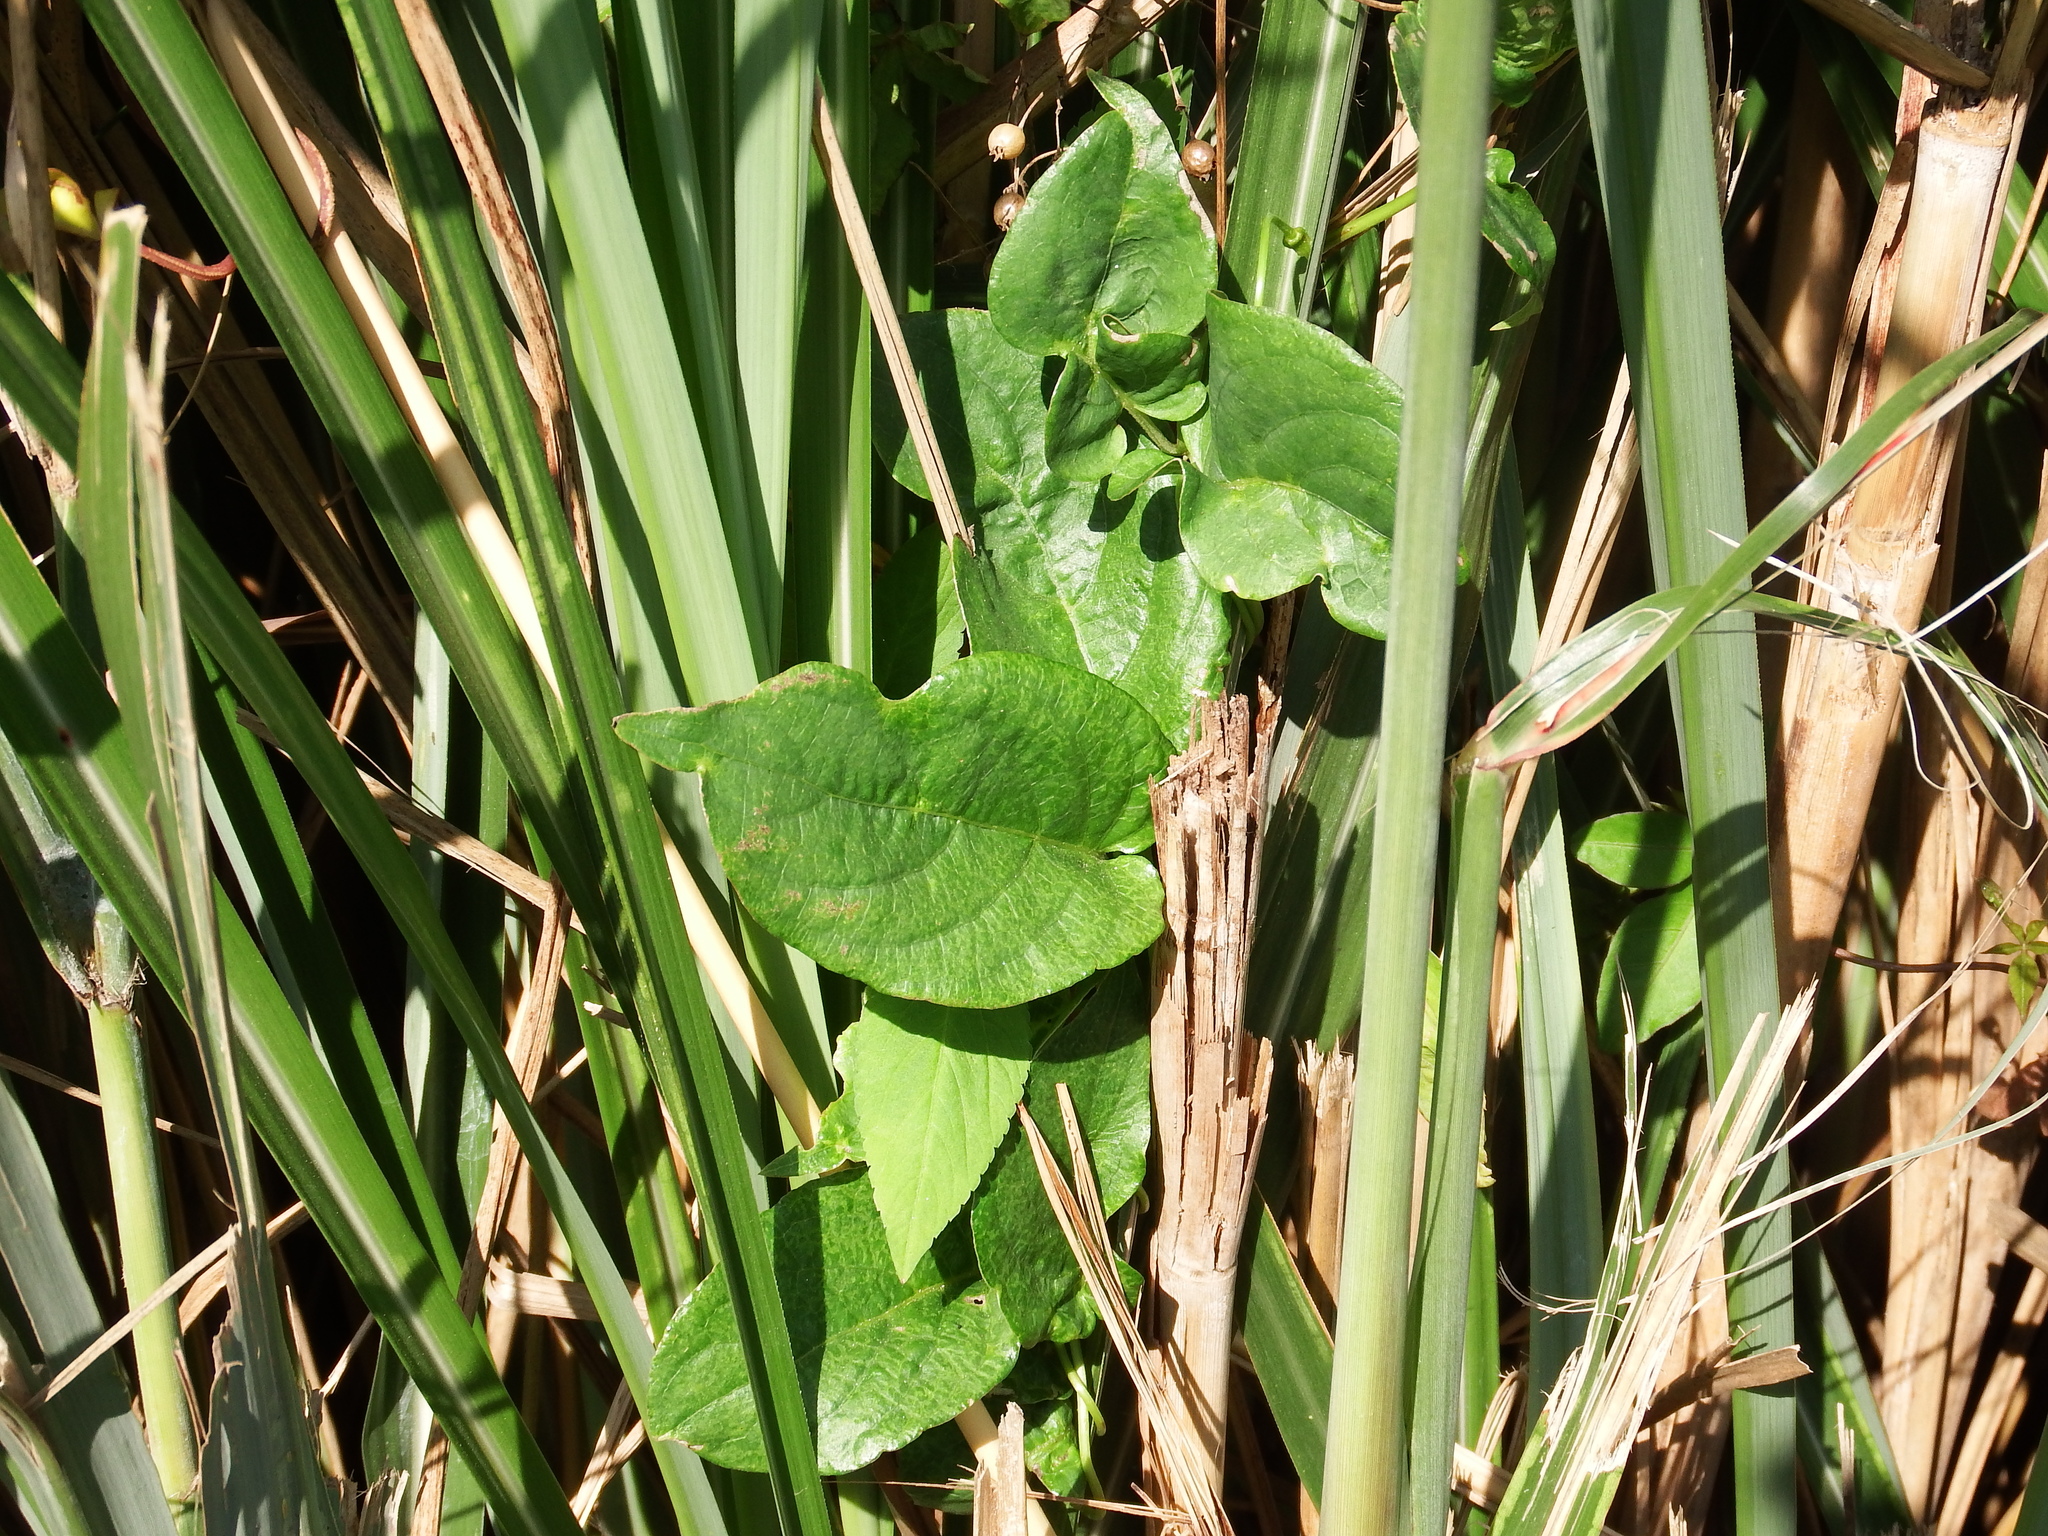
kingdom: Plantae
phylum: Tracheophyta
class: Magnoliopsida
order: Gentianales
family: Rubiaceae
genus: Paederia
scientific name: Paederia foetida
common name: Stinkvine
